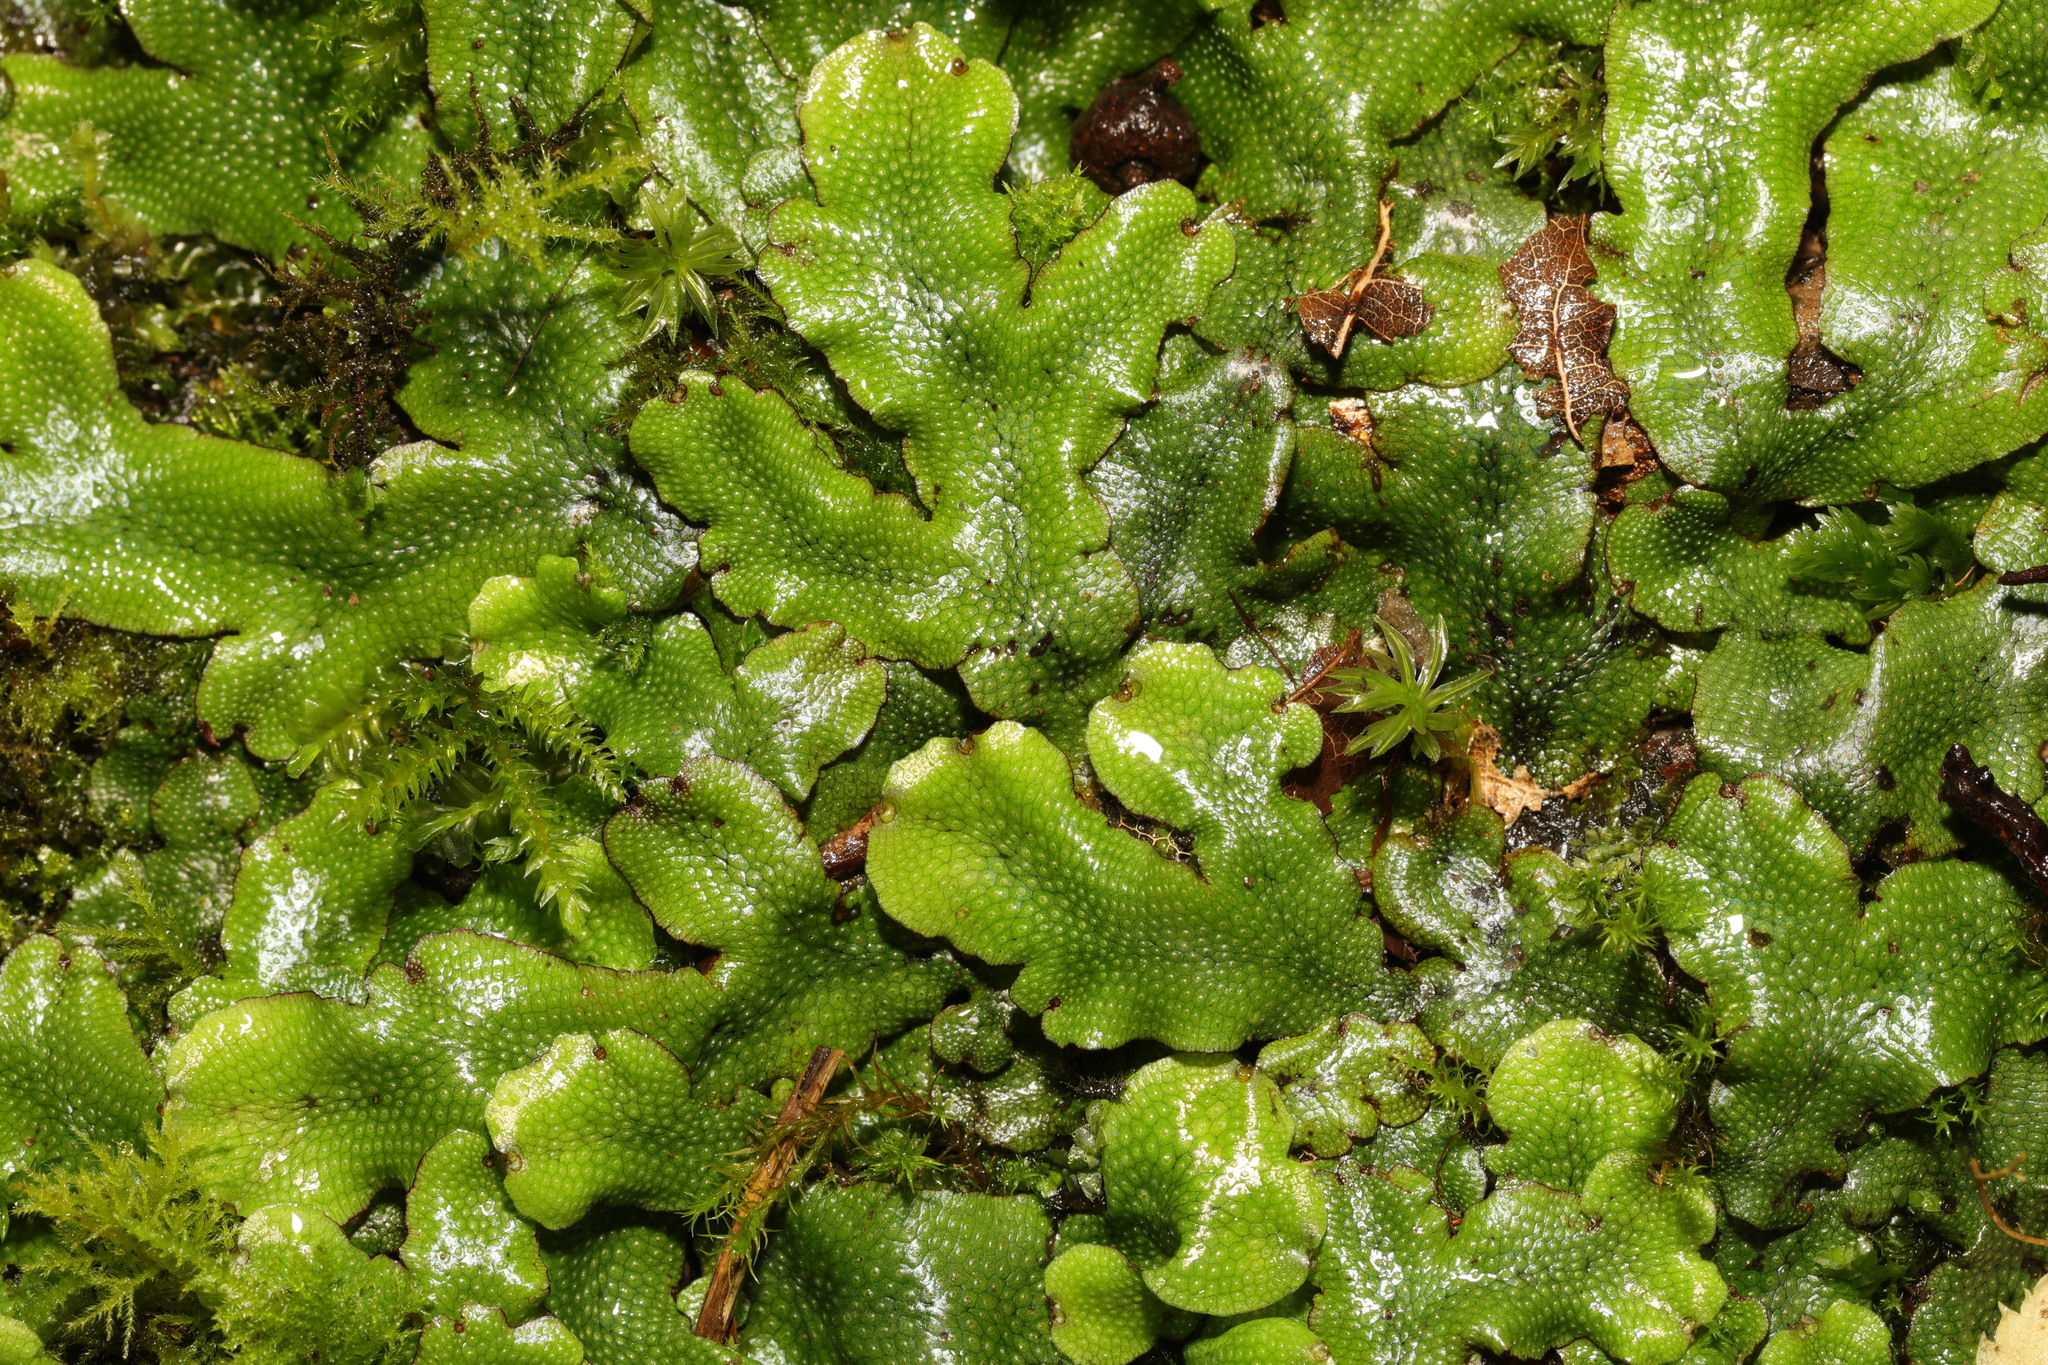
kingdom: Plantae
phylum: Marchantiophyta
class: Marchantiopsida
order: Marchantiales
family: Conocephalaceae
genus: Conocephalum
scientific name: Conocephalum conicum
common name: Great scented liverwort
